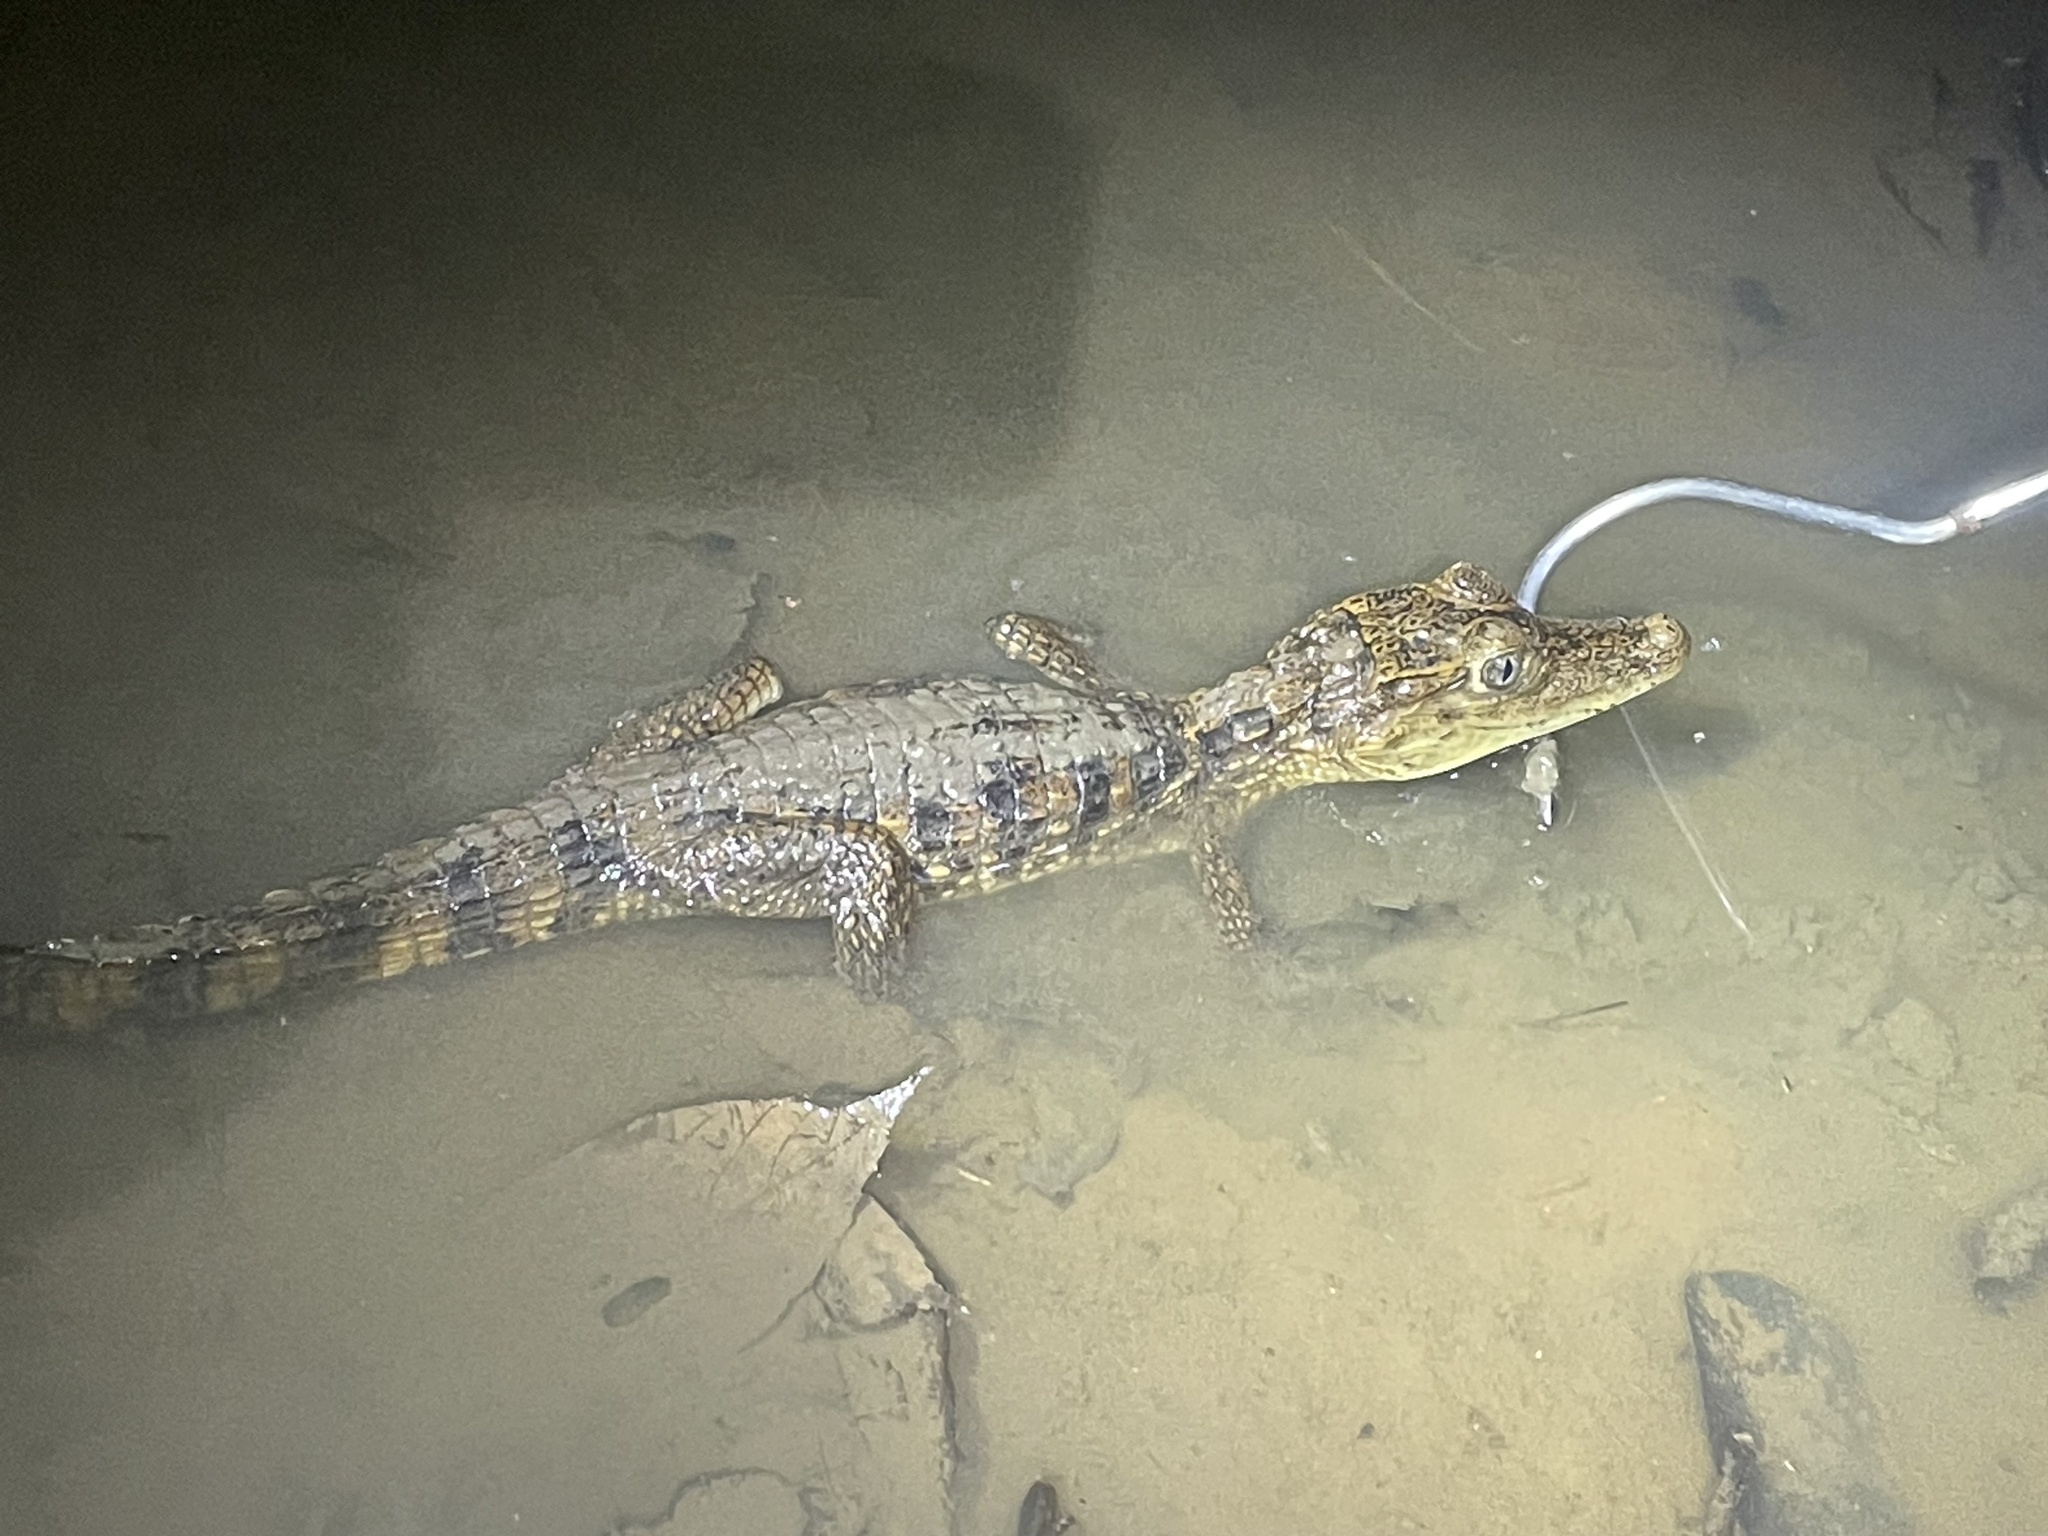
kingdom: Animalia
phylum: Chordata
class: Crocodylia
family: Alligatoridae
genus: Caiman
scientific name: Caiman crocodilus
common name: Common caiman
